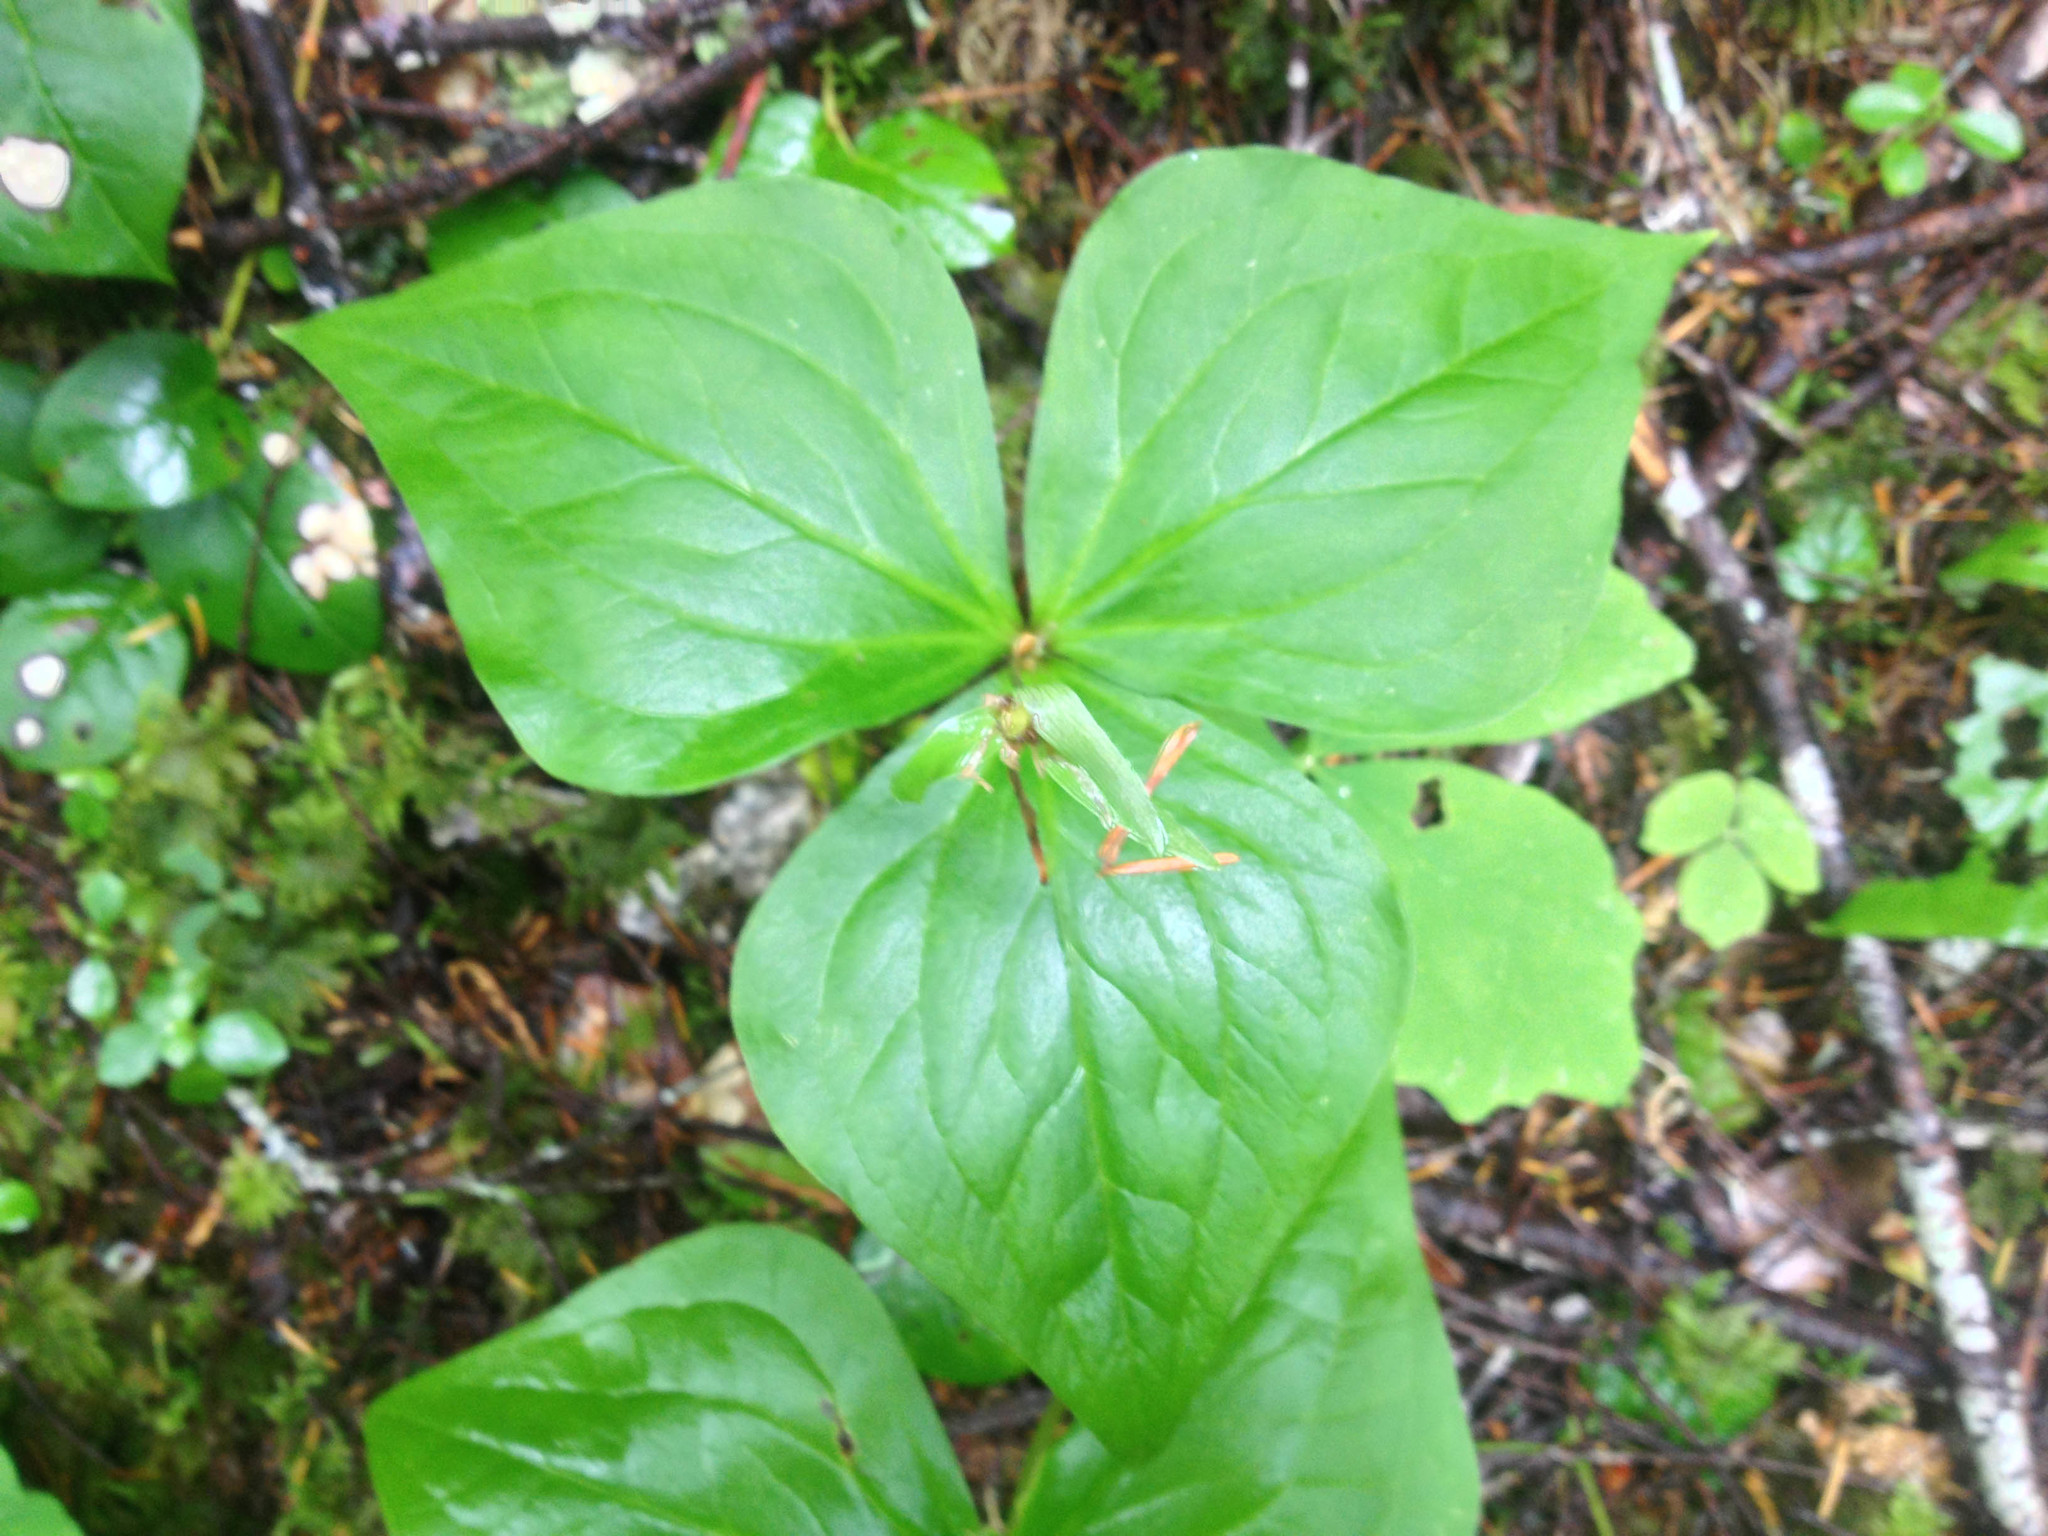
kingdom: Plantae
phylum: Tracheophyta
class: Liliopsida
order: Liliales
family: Melanthiaceae
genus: Trillium
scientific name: Trillium ovatum
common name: Pacific trillium
